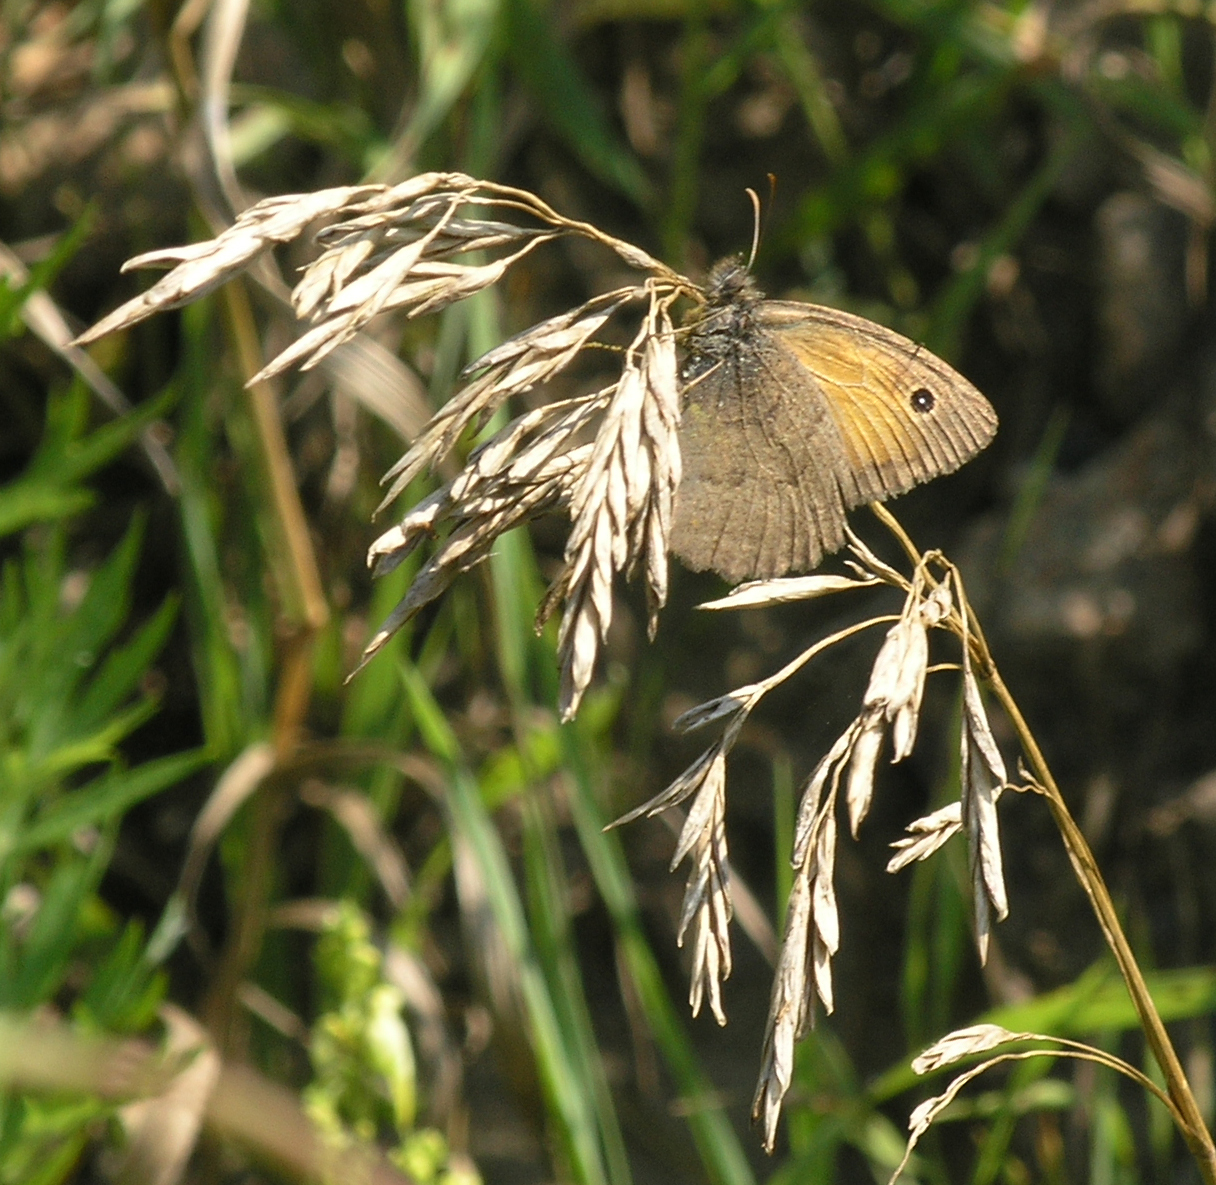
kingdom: Animalia
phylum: Arthropoda
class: Insecta
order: Lepidoptera
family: Nymphalidae
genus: Hyponephele
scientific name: Hyponephele lycaon
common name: Dusky meadow brown
